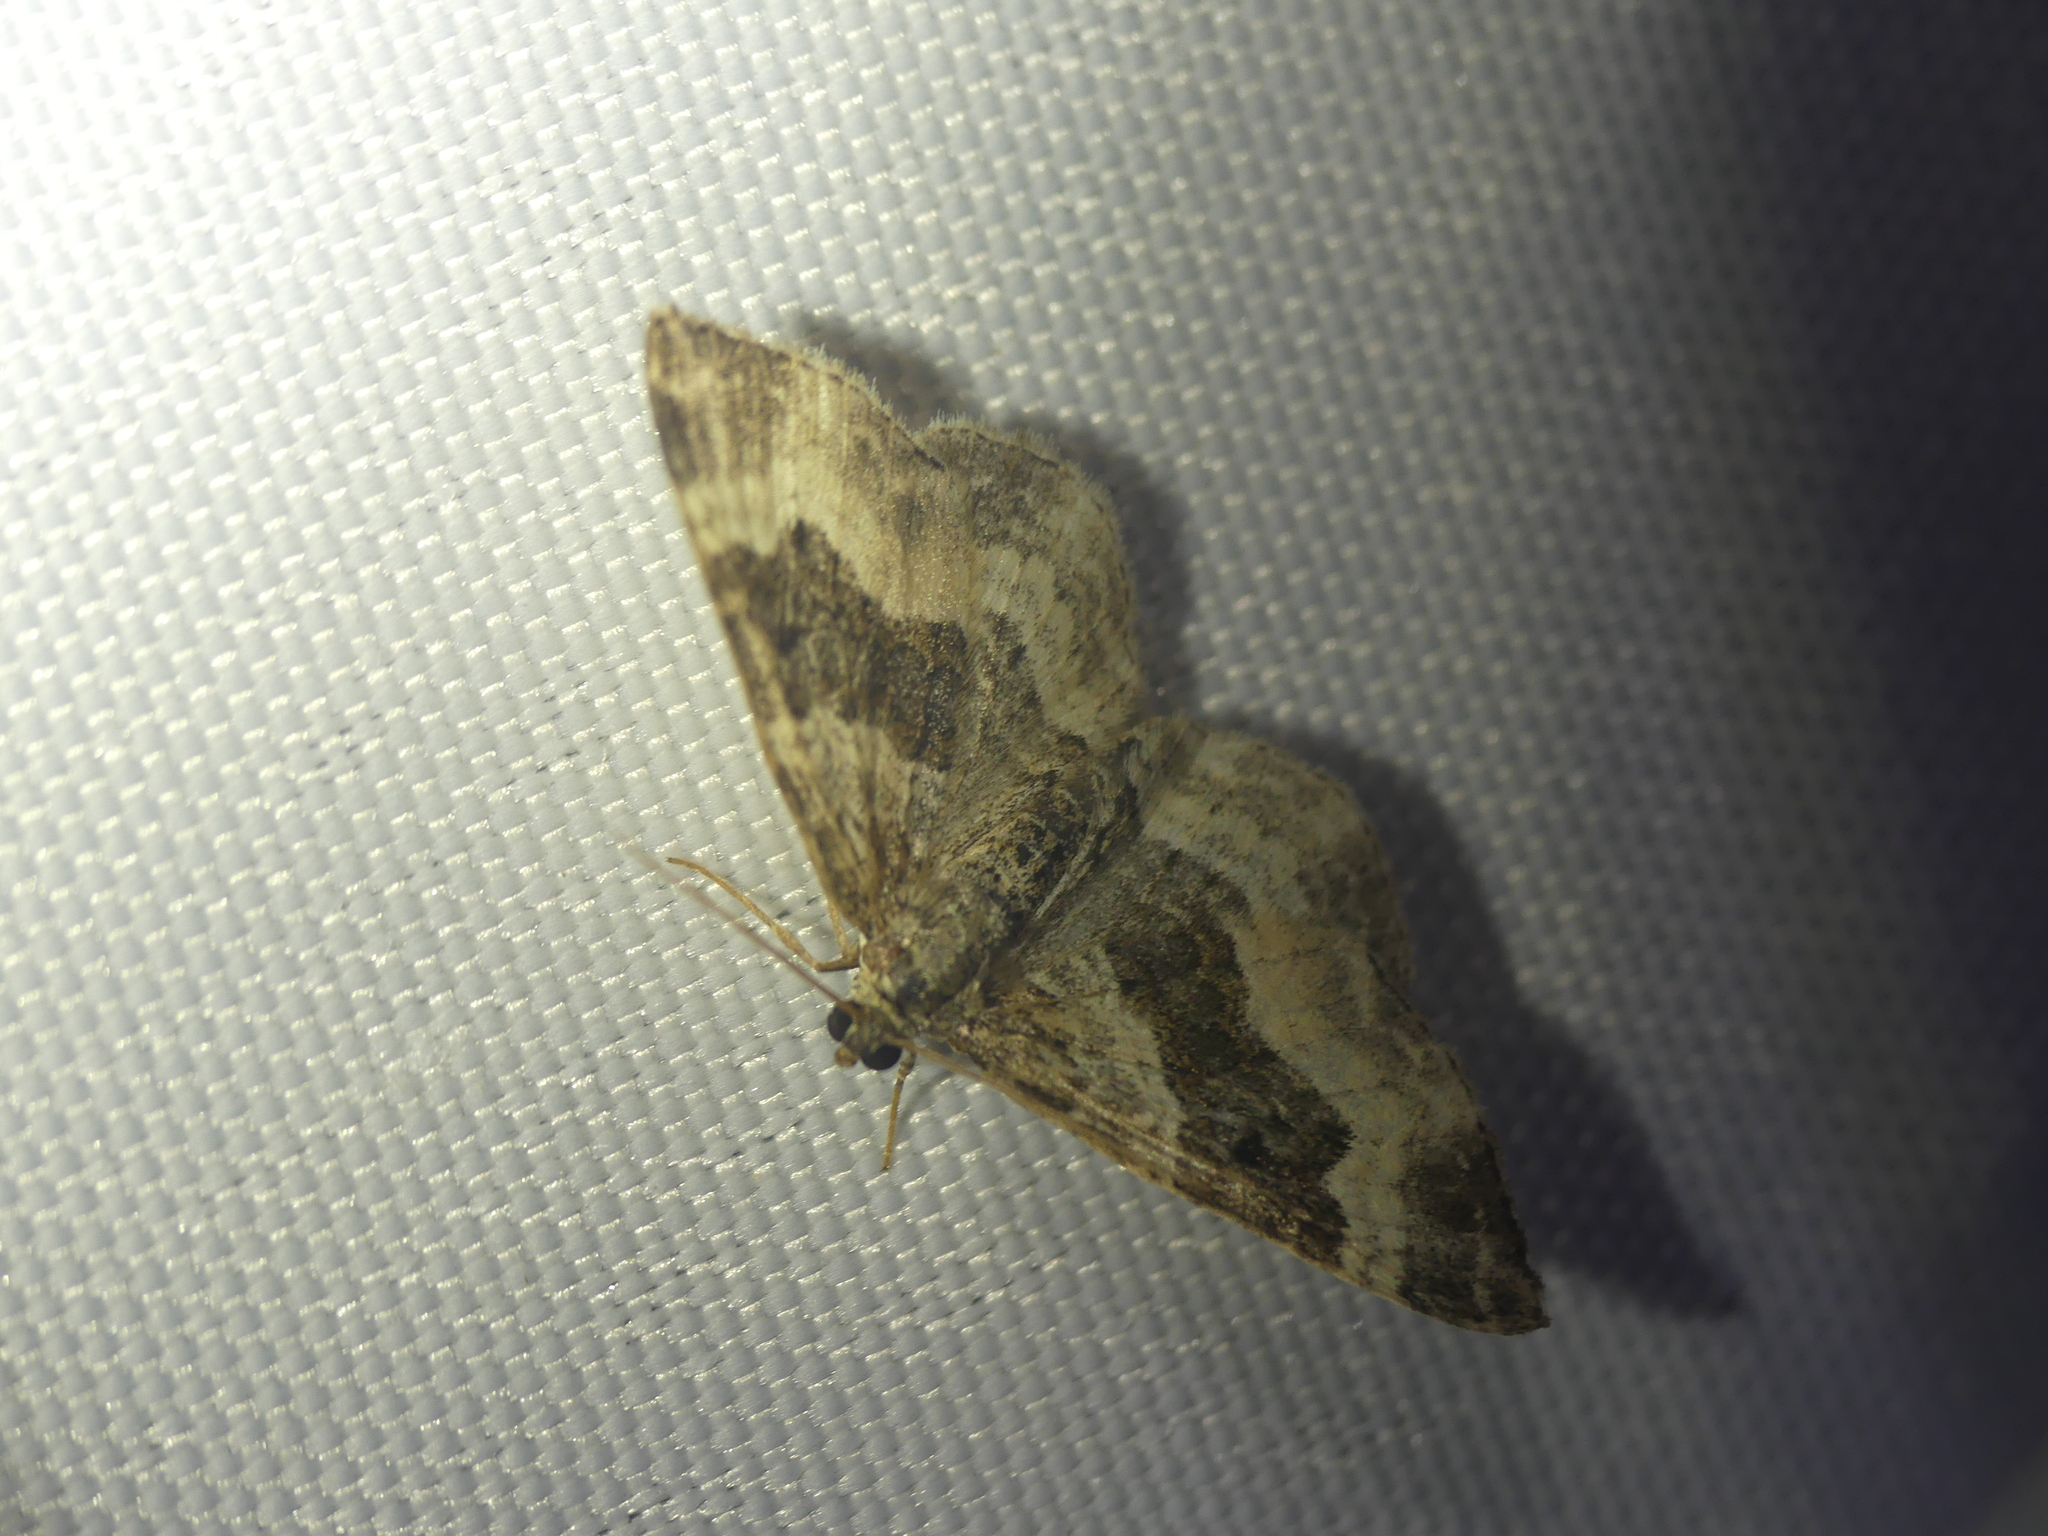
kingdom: Animalia
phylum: Arthropoda
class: Insecta
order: Lepidoptera
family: Geometridae
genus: Epirrhoe
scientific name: Epirrhoe alternata
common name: Common carpet
